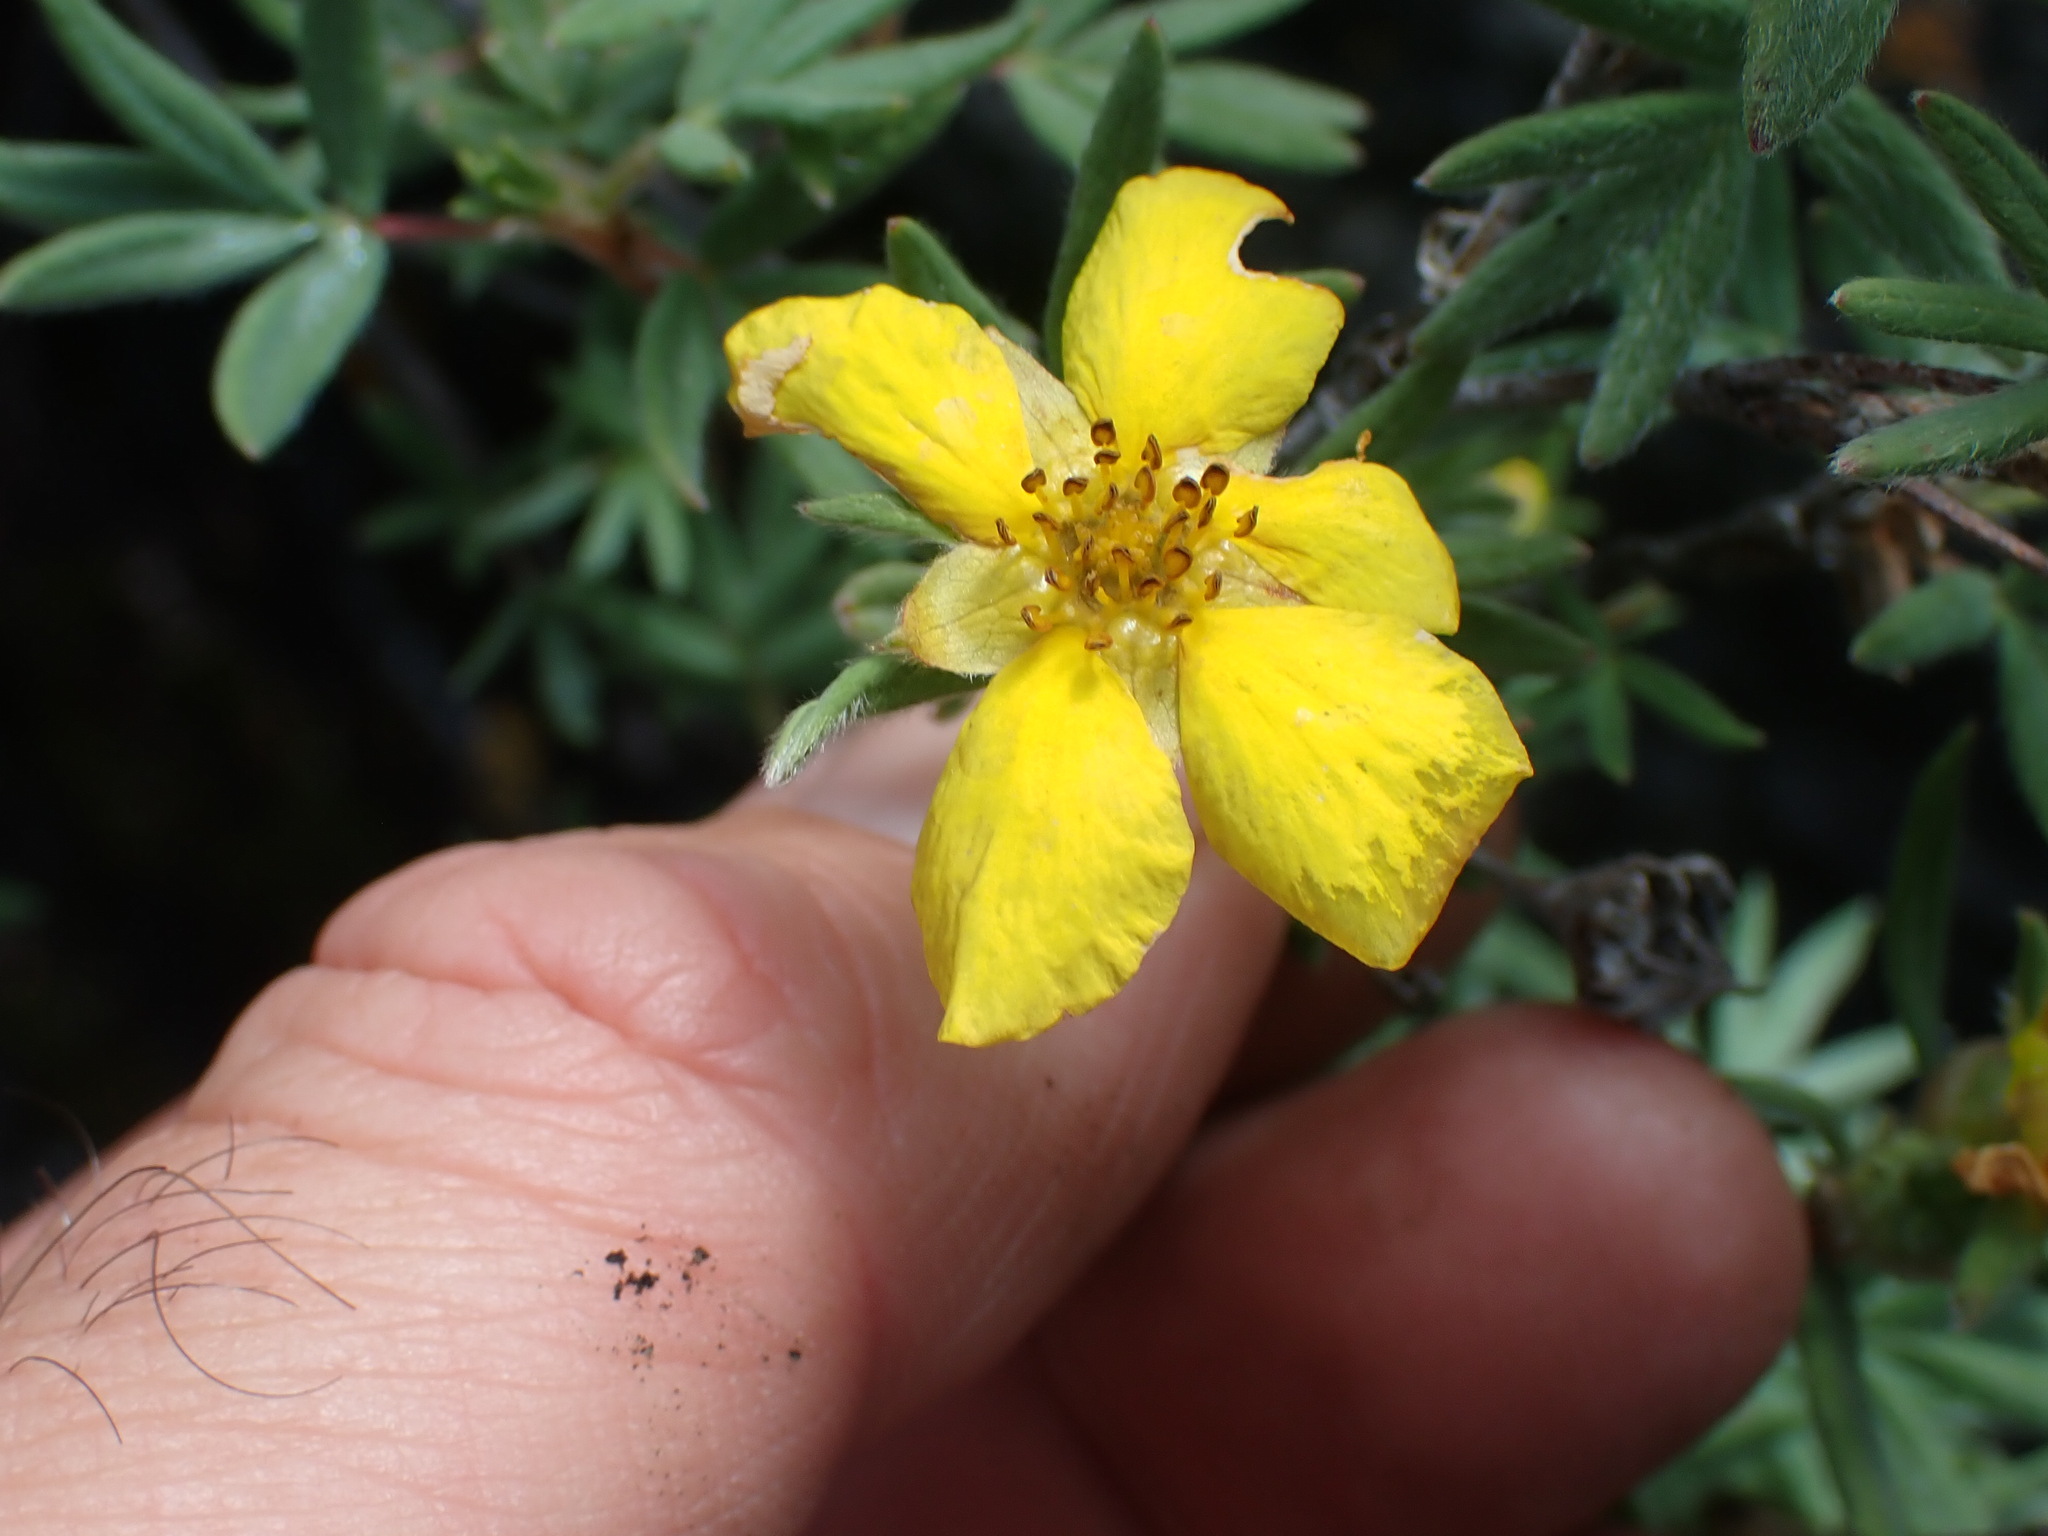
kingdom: Plantae
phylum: Tracheophyta
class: Magnoliopsida
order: Rosales
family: Rosaceae
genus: Dasiphora
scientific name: Dasiphora fruticosa
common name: Shrubby cinquefoil
